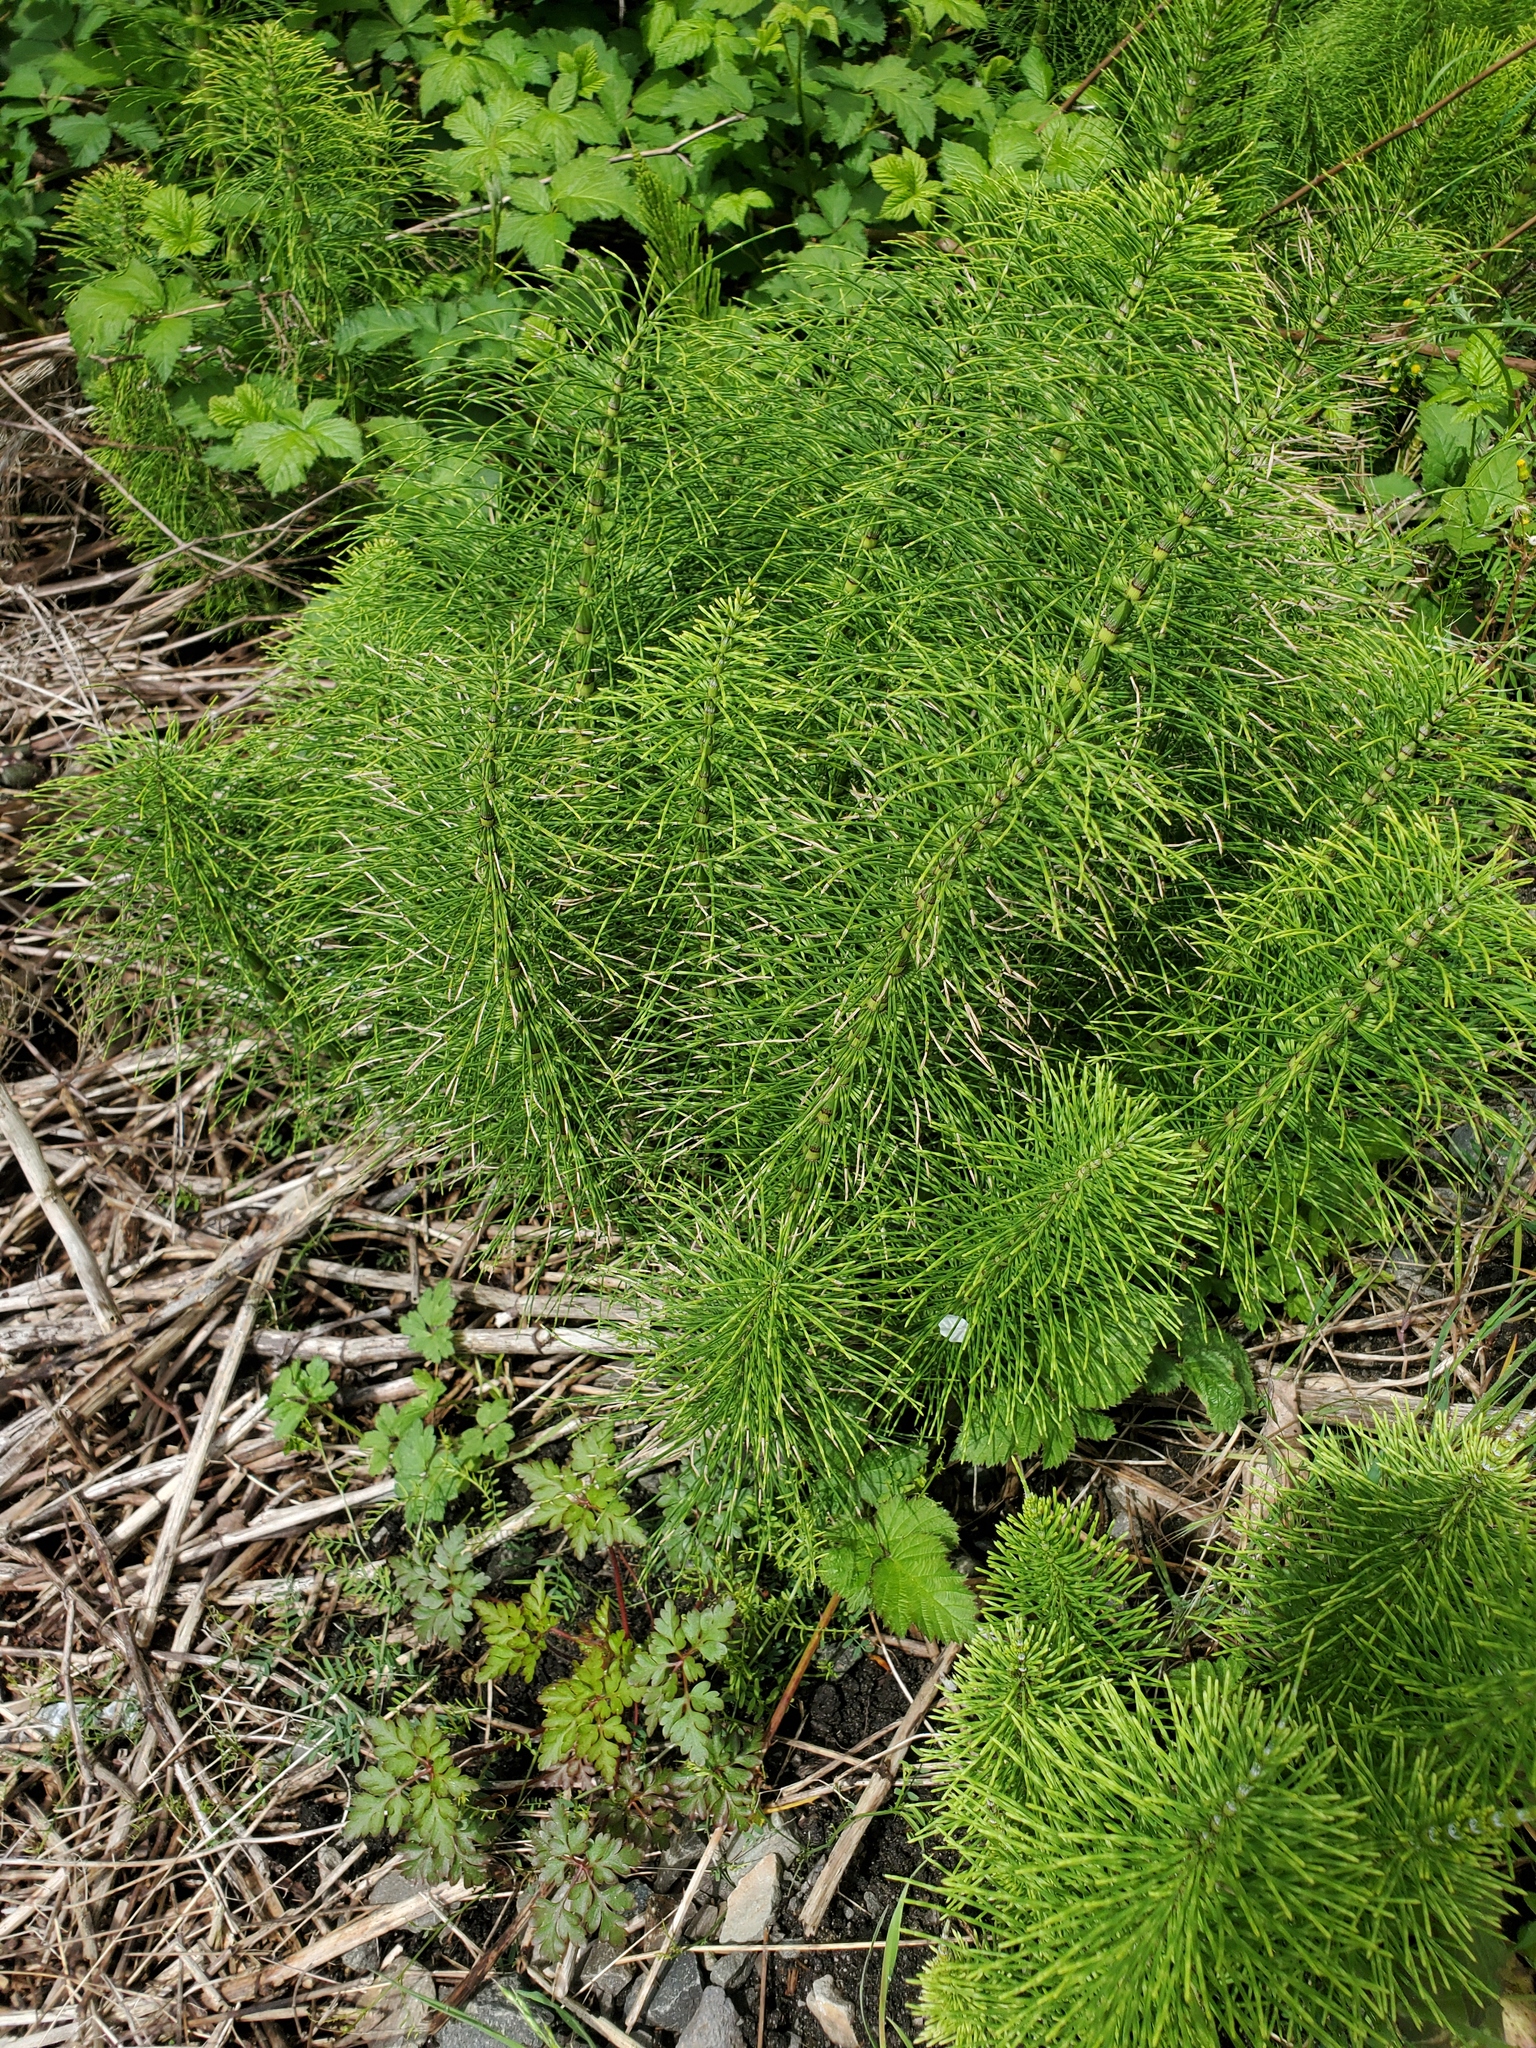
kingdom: Plantae
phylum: Tracheophyta
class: Polypodiopsida
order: Equisetales
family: Equisetaceae
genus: Equisetum
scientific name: Equisetum telmateia
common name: Great horsetail
